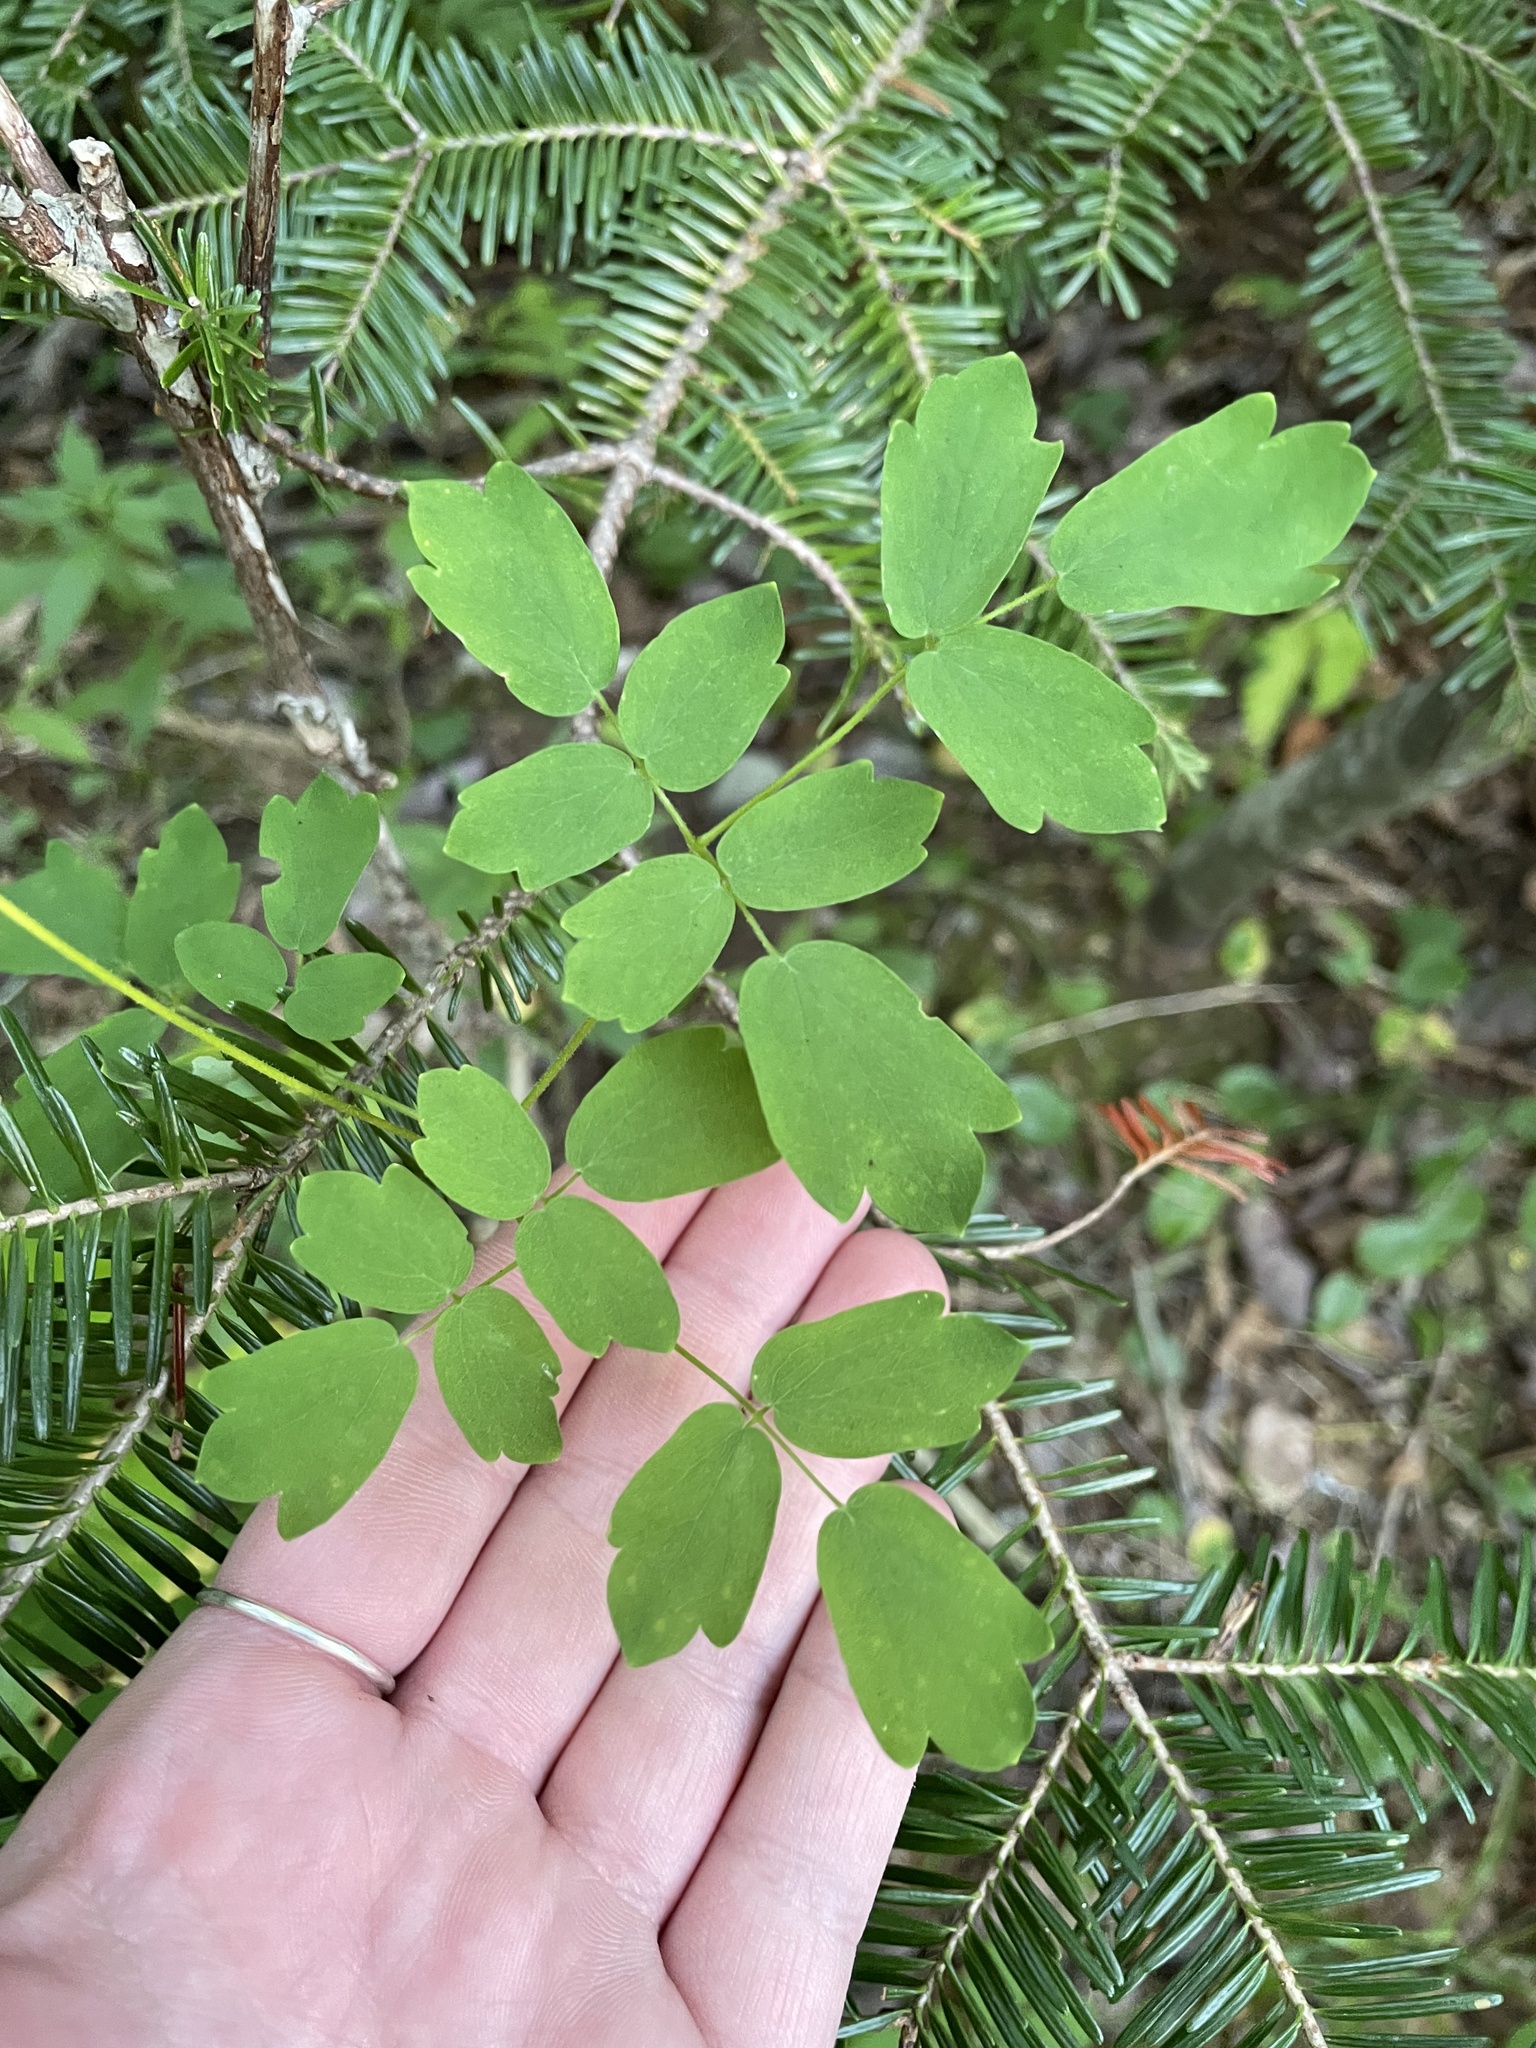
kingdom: Plantae
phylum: Tracheophyta
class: Magnoliopsida
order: Ranunculales
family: Ranunculaceae
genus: Thalictrum
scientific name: Thalictrum pubescens
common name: King-of-the-meadow
